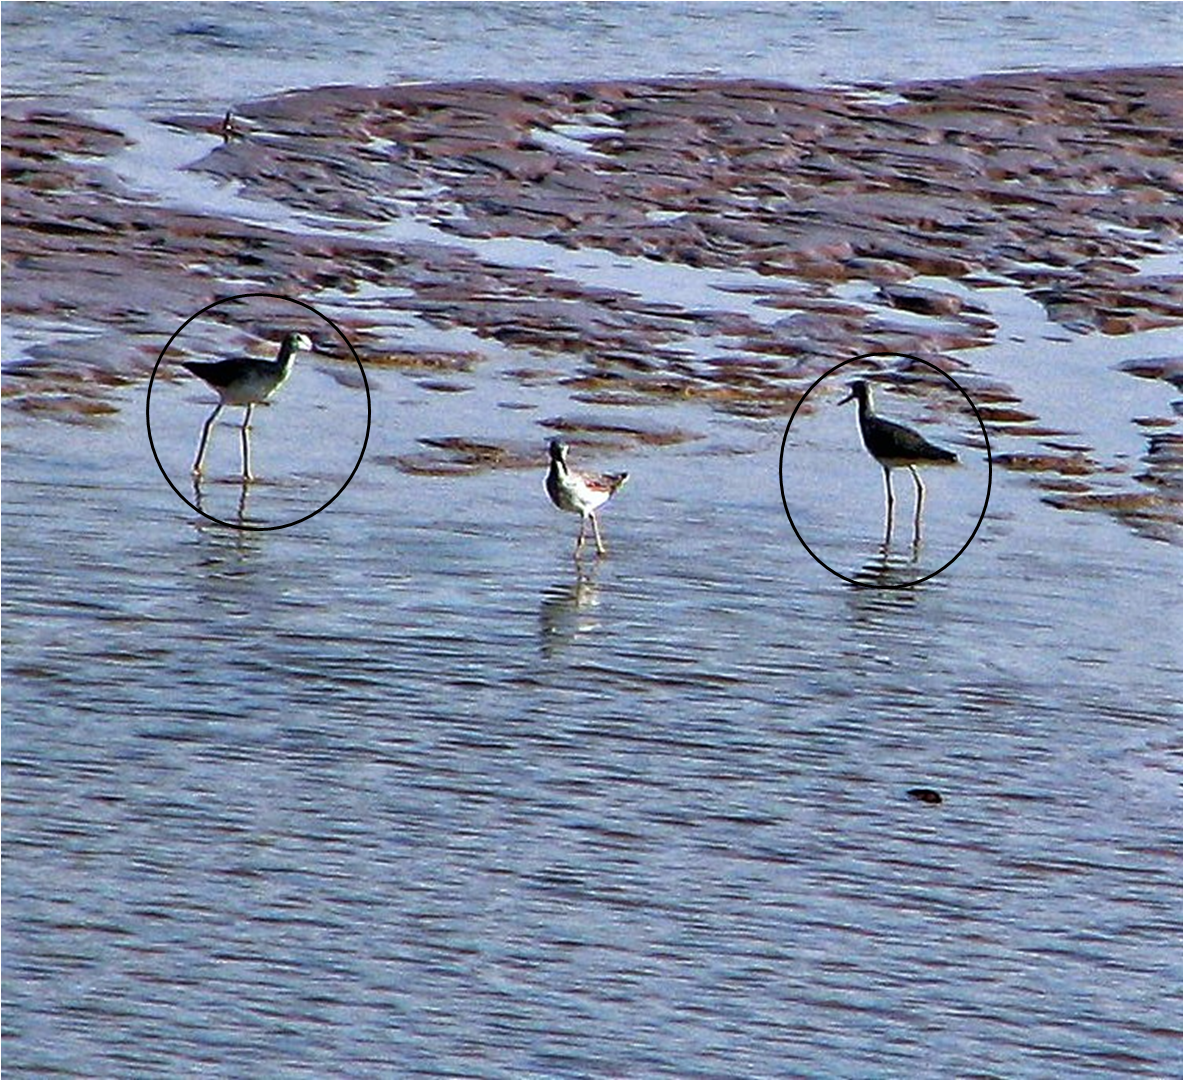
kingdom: Animalia
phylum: Chordata
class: Aves
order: Charadriiformes
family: Scolopacidae
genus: Tringa
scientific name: Tringa melanoleuca
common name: Greater yellowlegs
